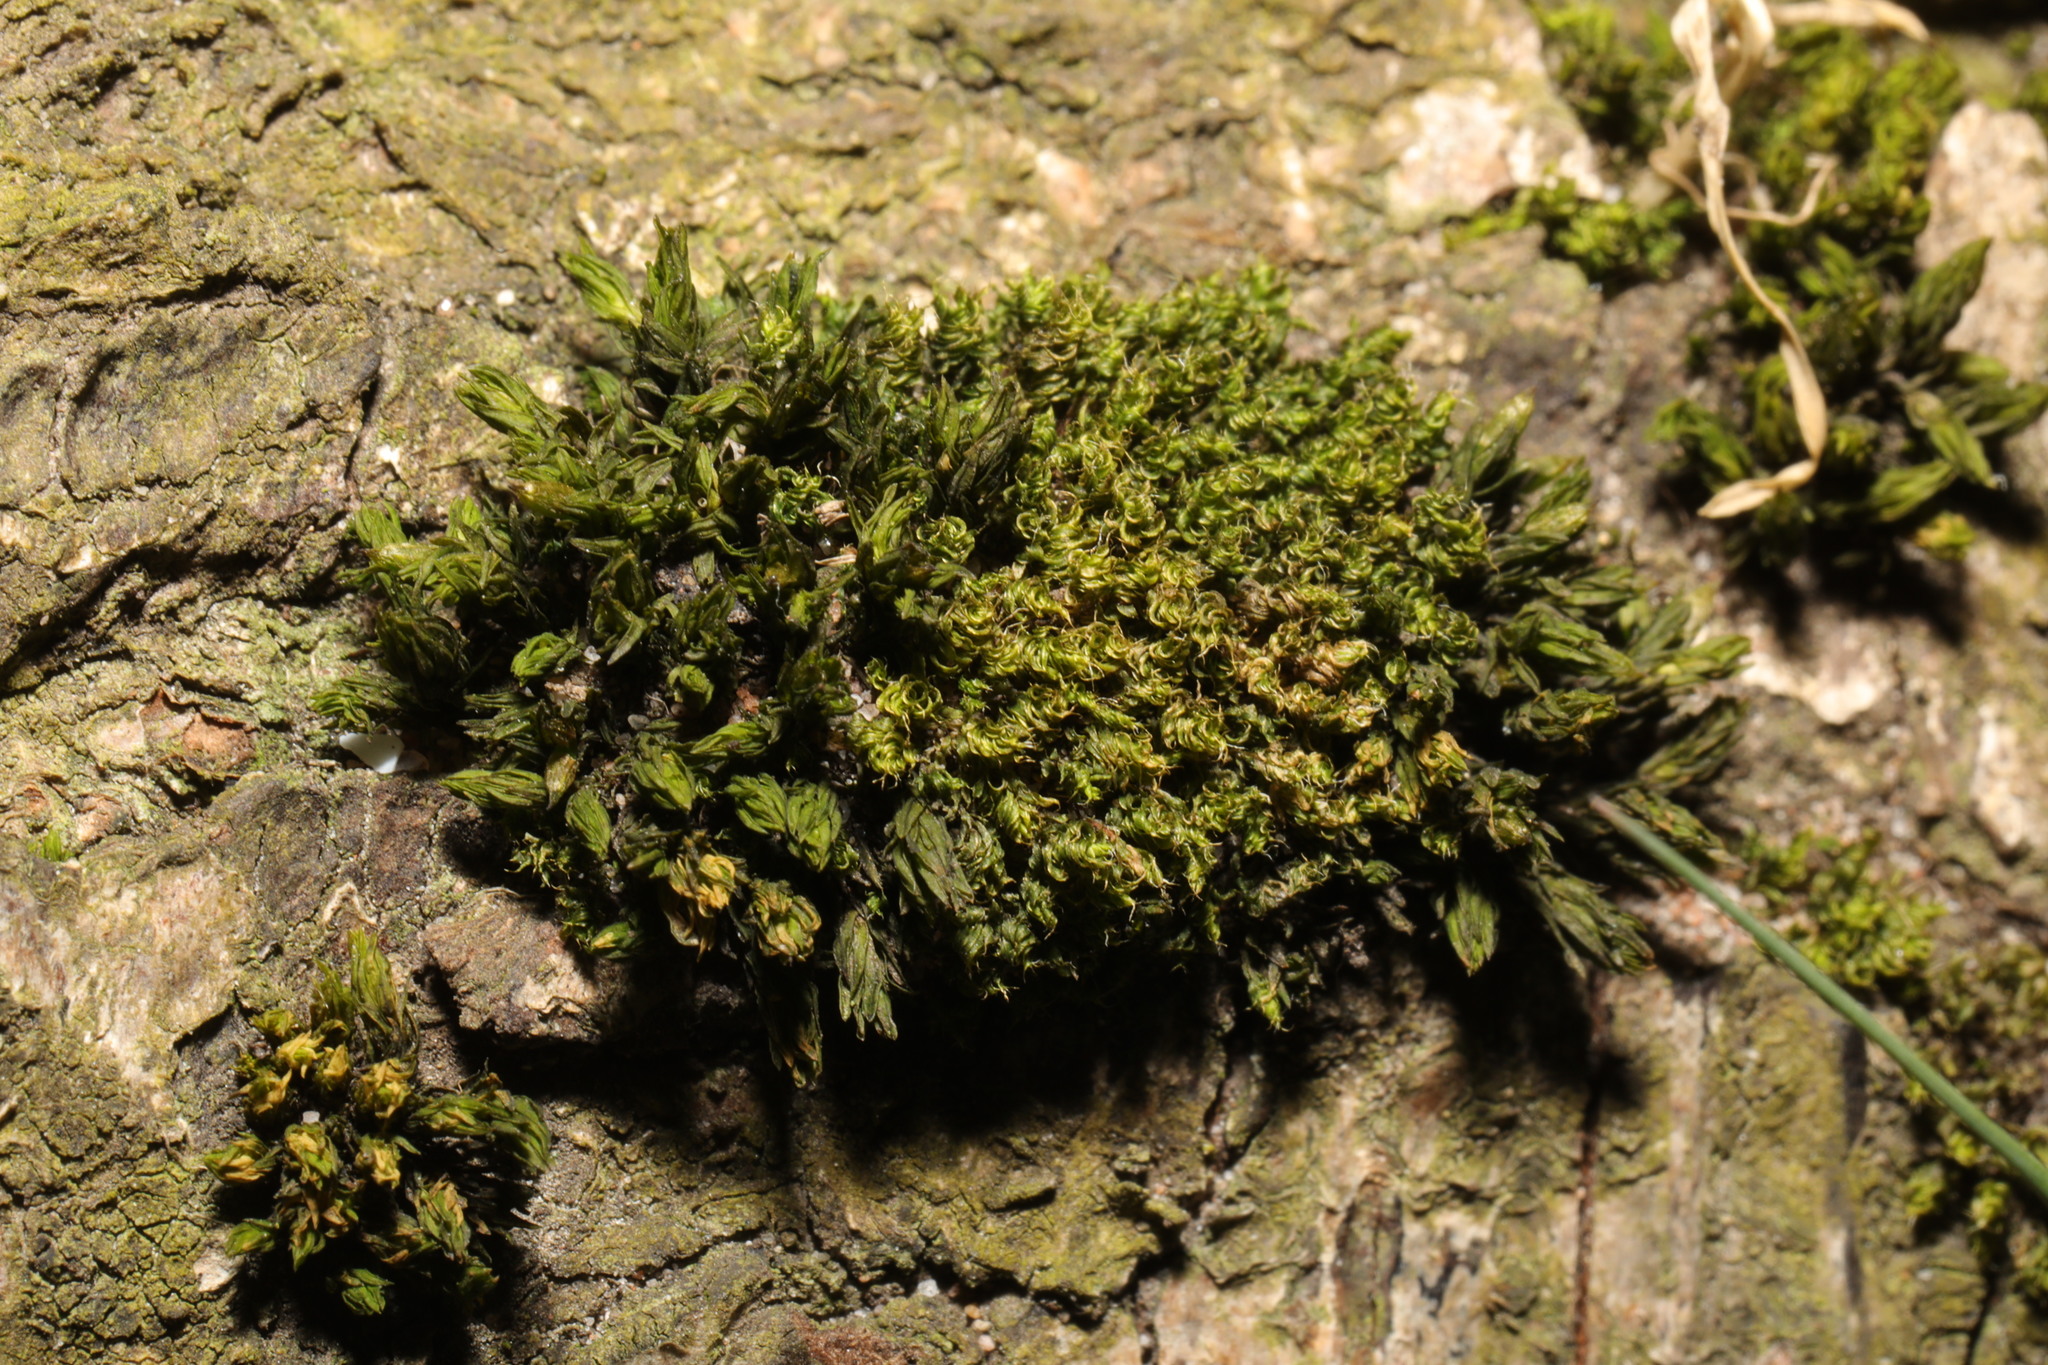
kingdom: Plantae
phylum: Bryophyta
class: Bryopsida
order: Orthotrichales
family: Orthotrichaceae
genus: Lewinskya
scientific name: Lewinskya affinis
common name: Wood bristle-moss
